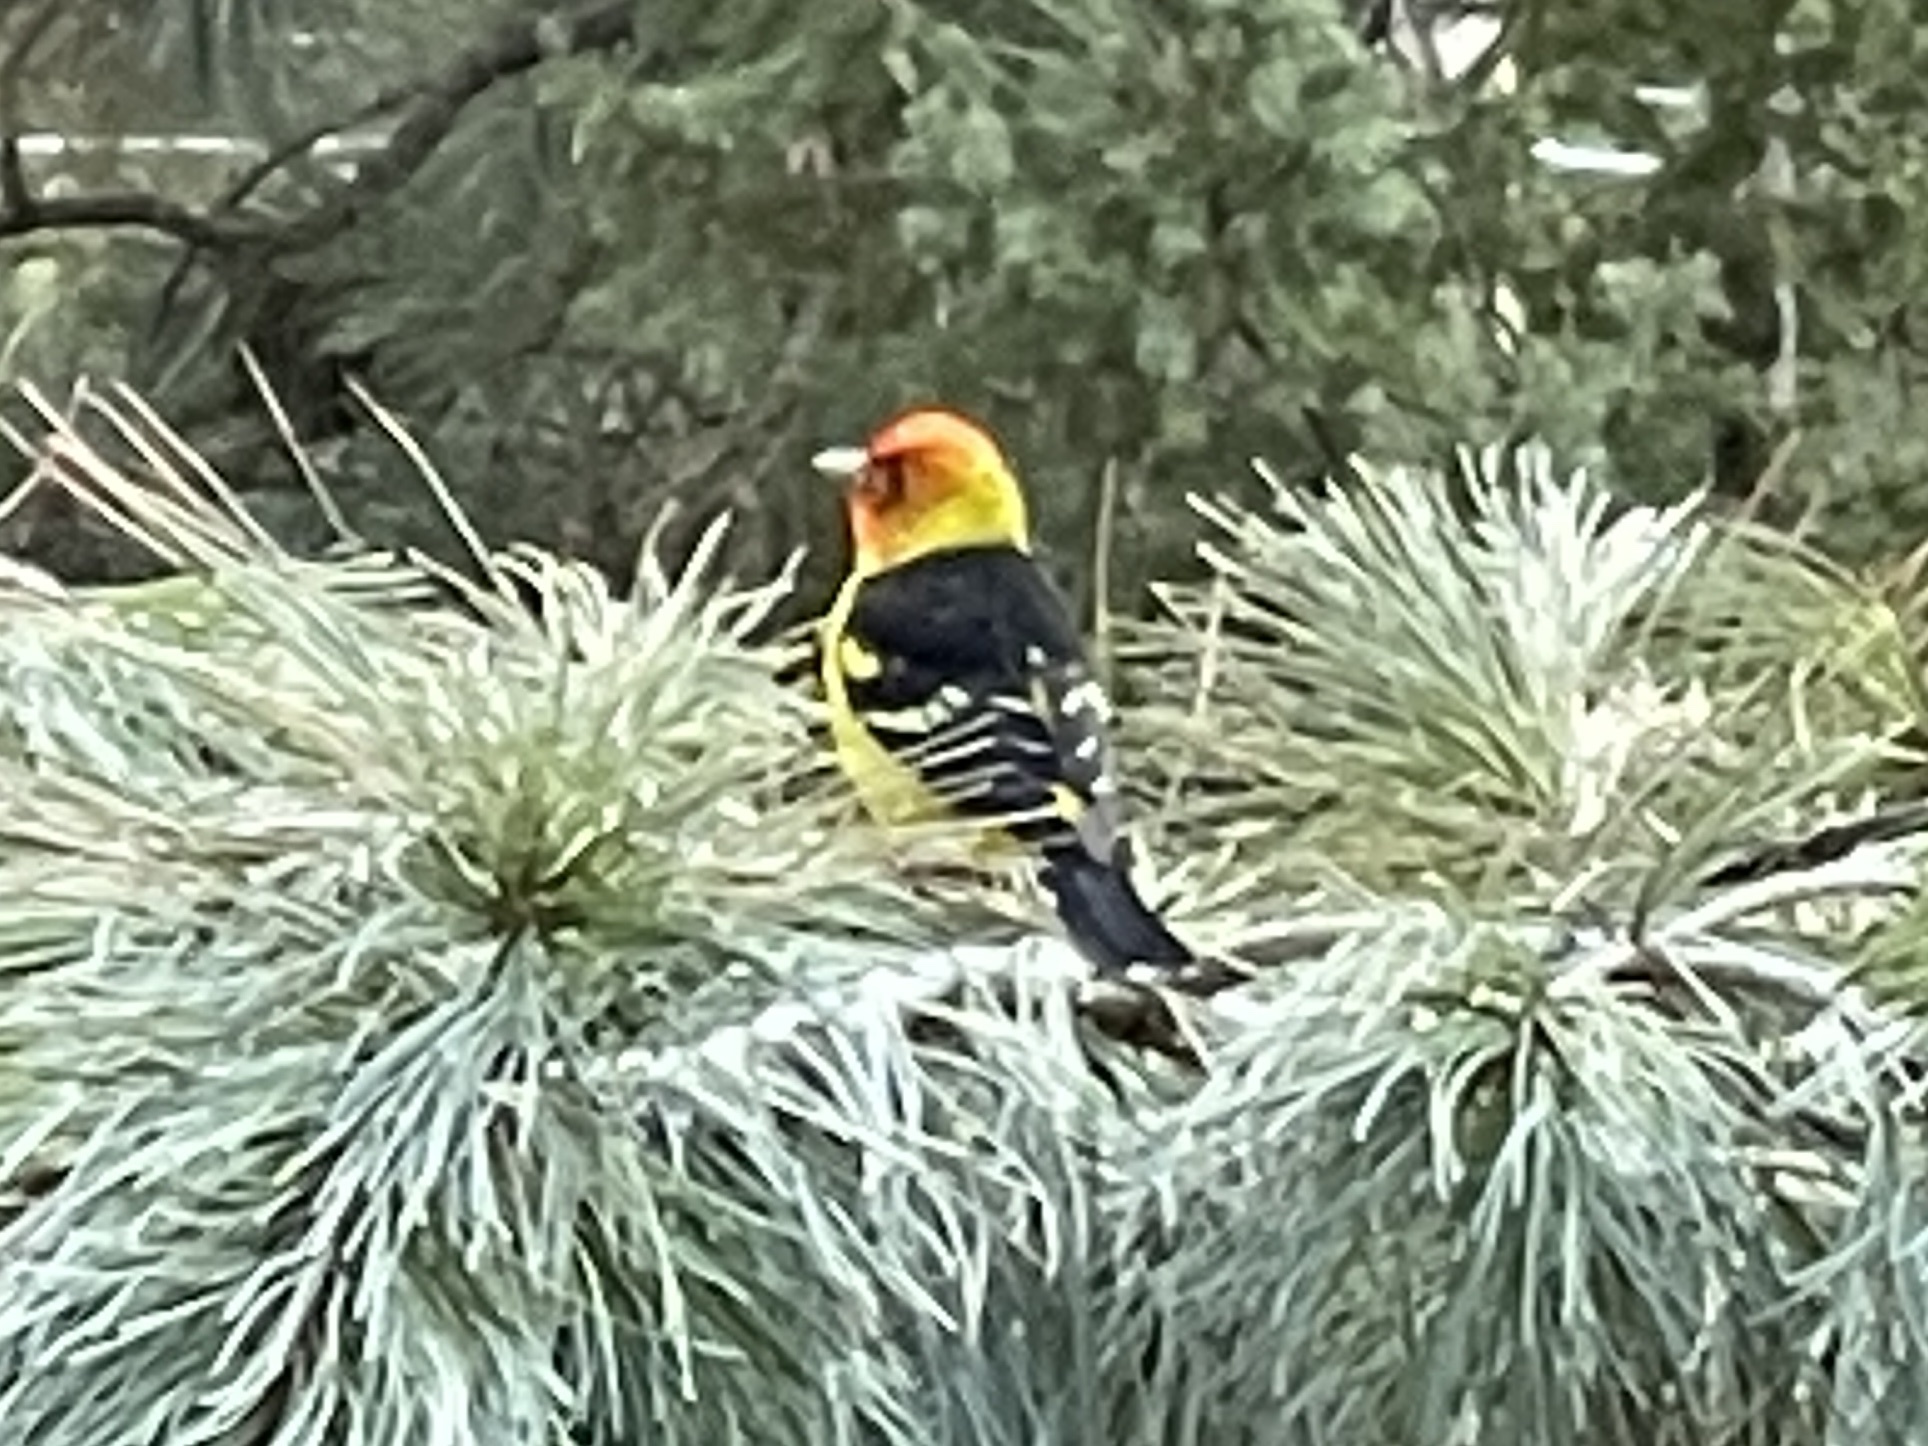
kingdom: Animalia
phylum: Chordata
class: Aves
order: Passeriformes
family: Cardinalidae
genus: Piranga
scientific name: Piranga ludoviciana
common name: Western tanager
